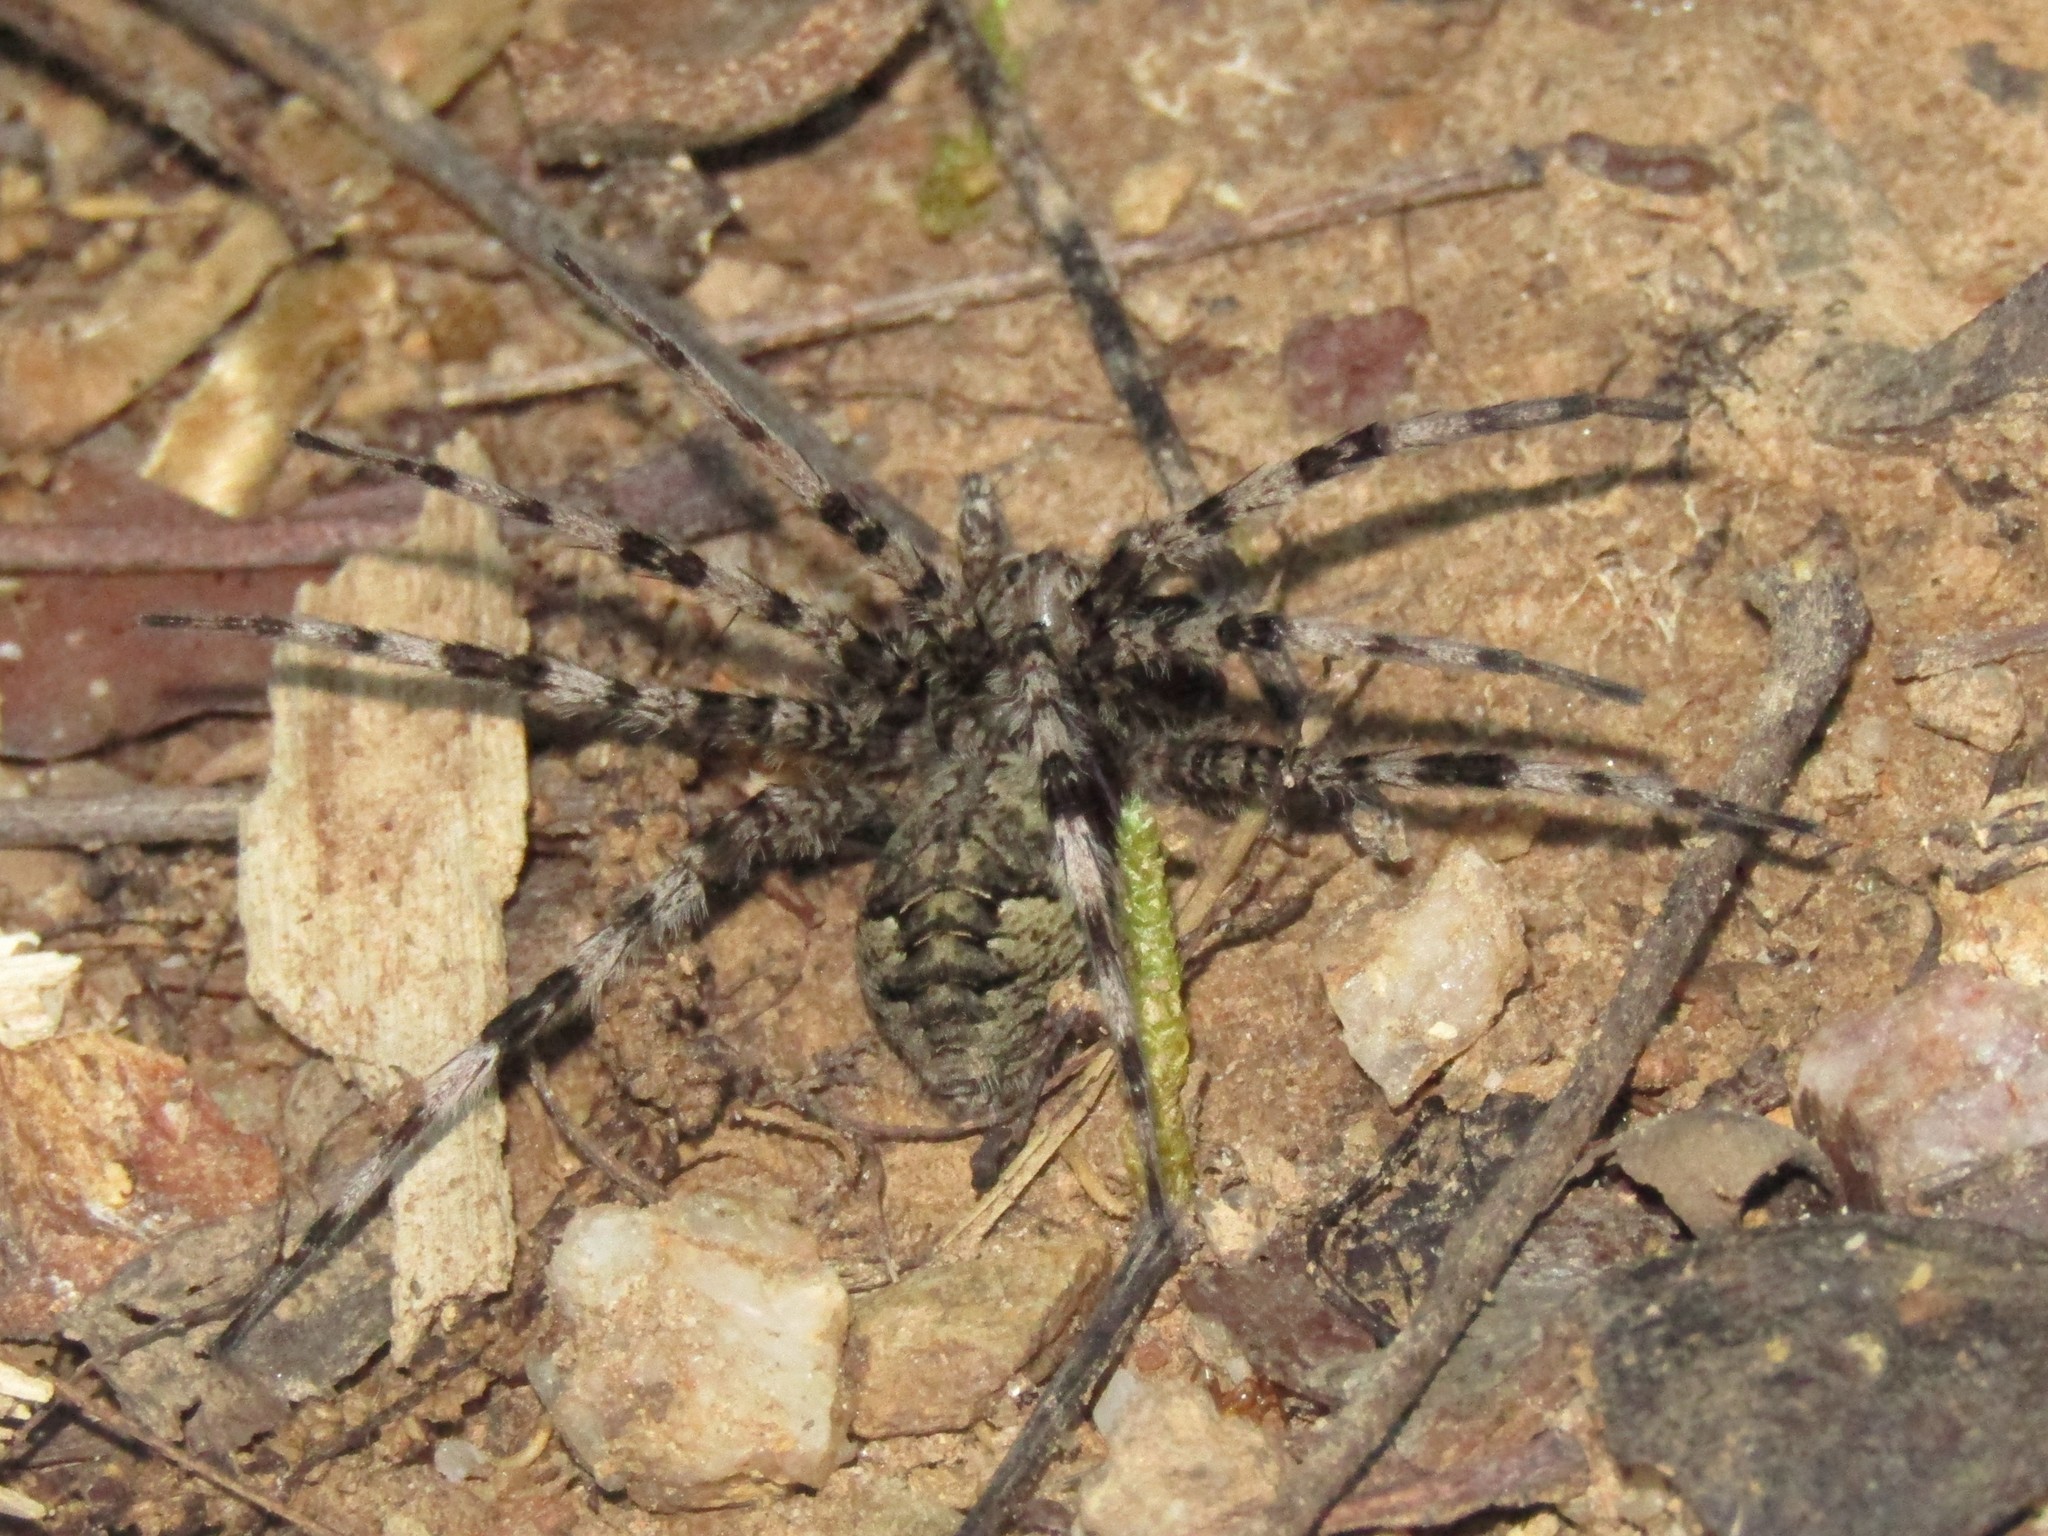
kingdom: Animalia
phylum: Arthropoda
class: Arachnida
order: Araneae
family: Pisauridae
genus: Dolomedes
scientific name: Dolomedes albineus
